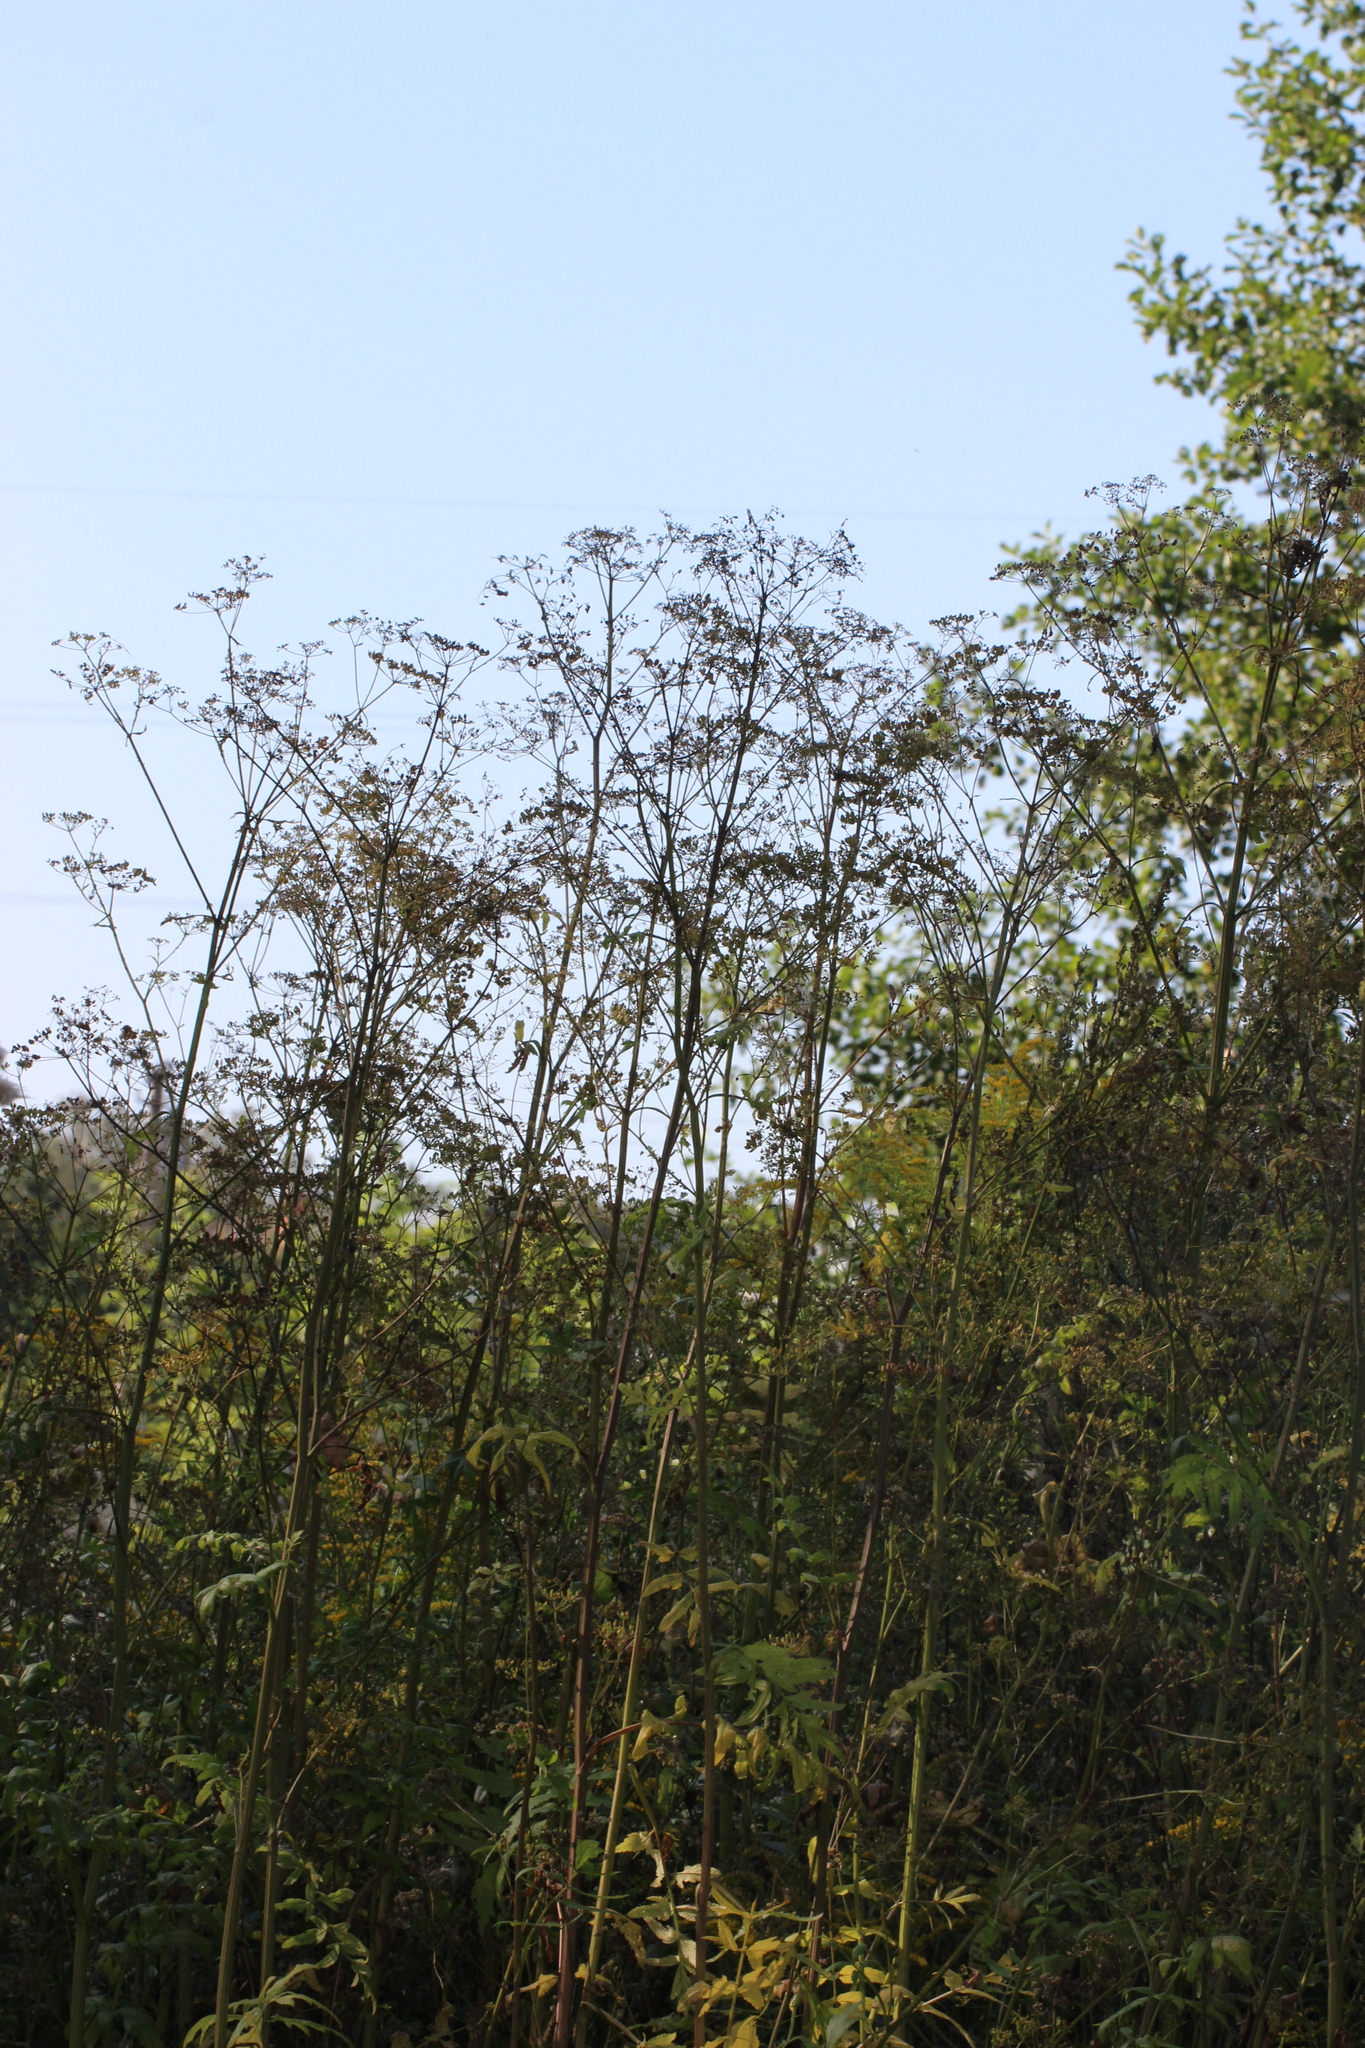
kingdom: Plantae
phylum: Tracheophyta
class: Magnoliopsida
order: Apiales
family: Apiaceae
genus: Pastinaca
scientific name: Pastinaca sativa
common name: Wild parsnip
